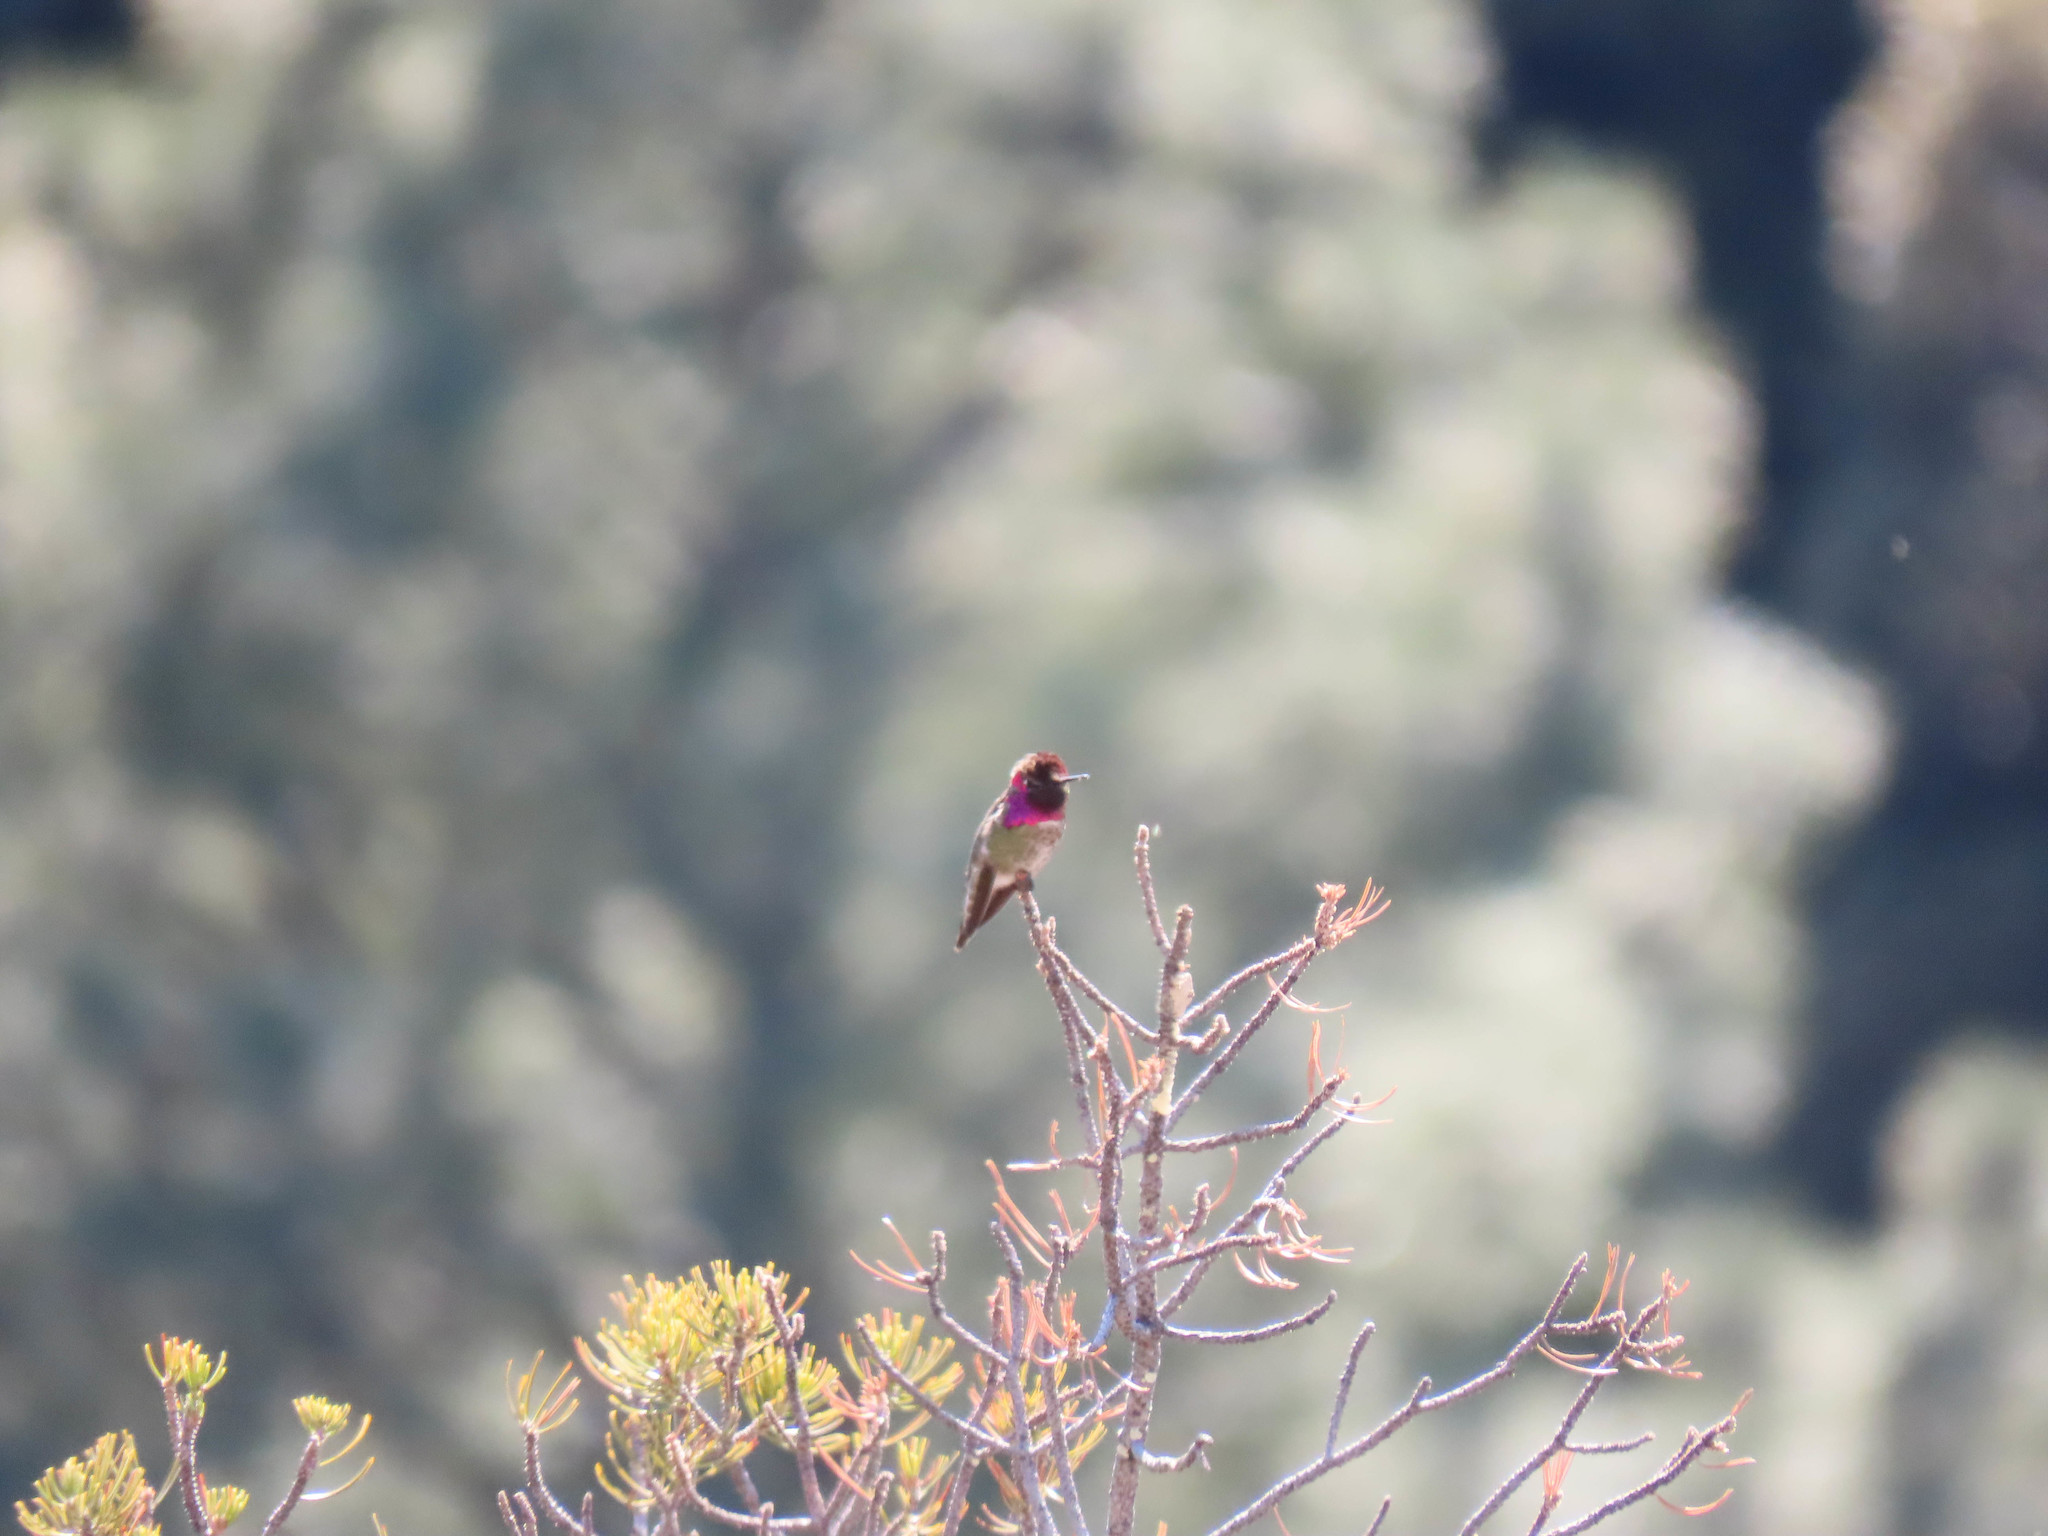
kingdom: Animalia
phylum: Chordata
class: Aves
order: Apodiformes
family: Trochilidae
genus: Calypte
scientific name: Calypte anna
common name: Anna's hummingbird
